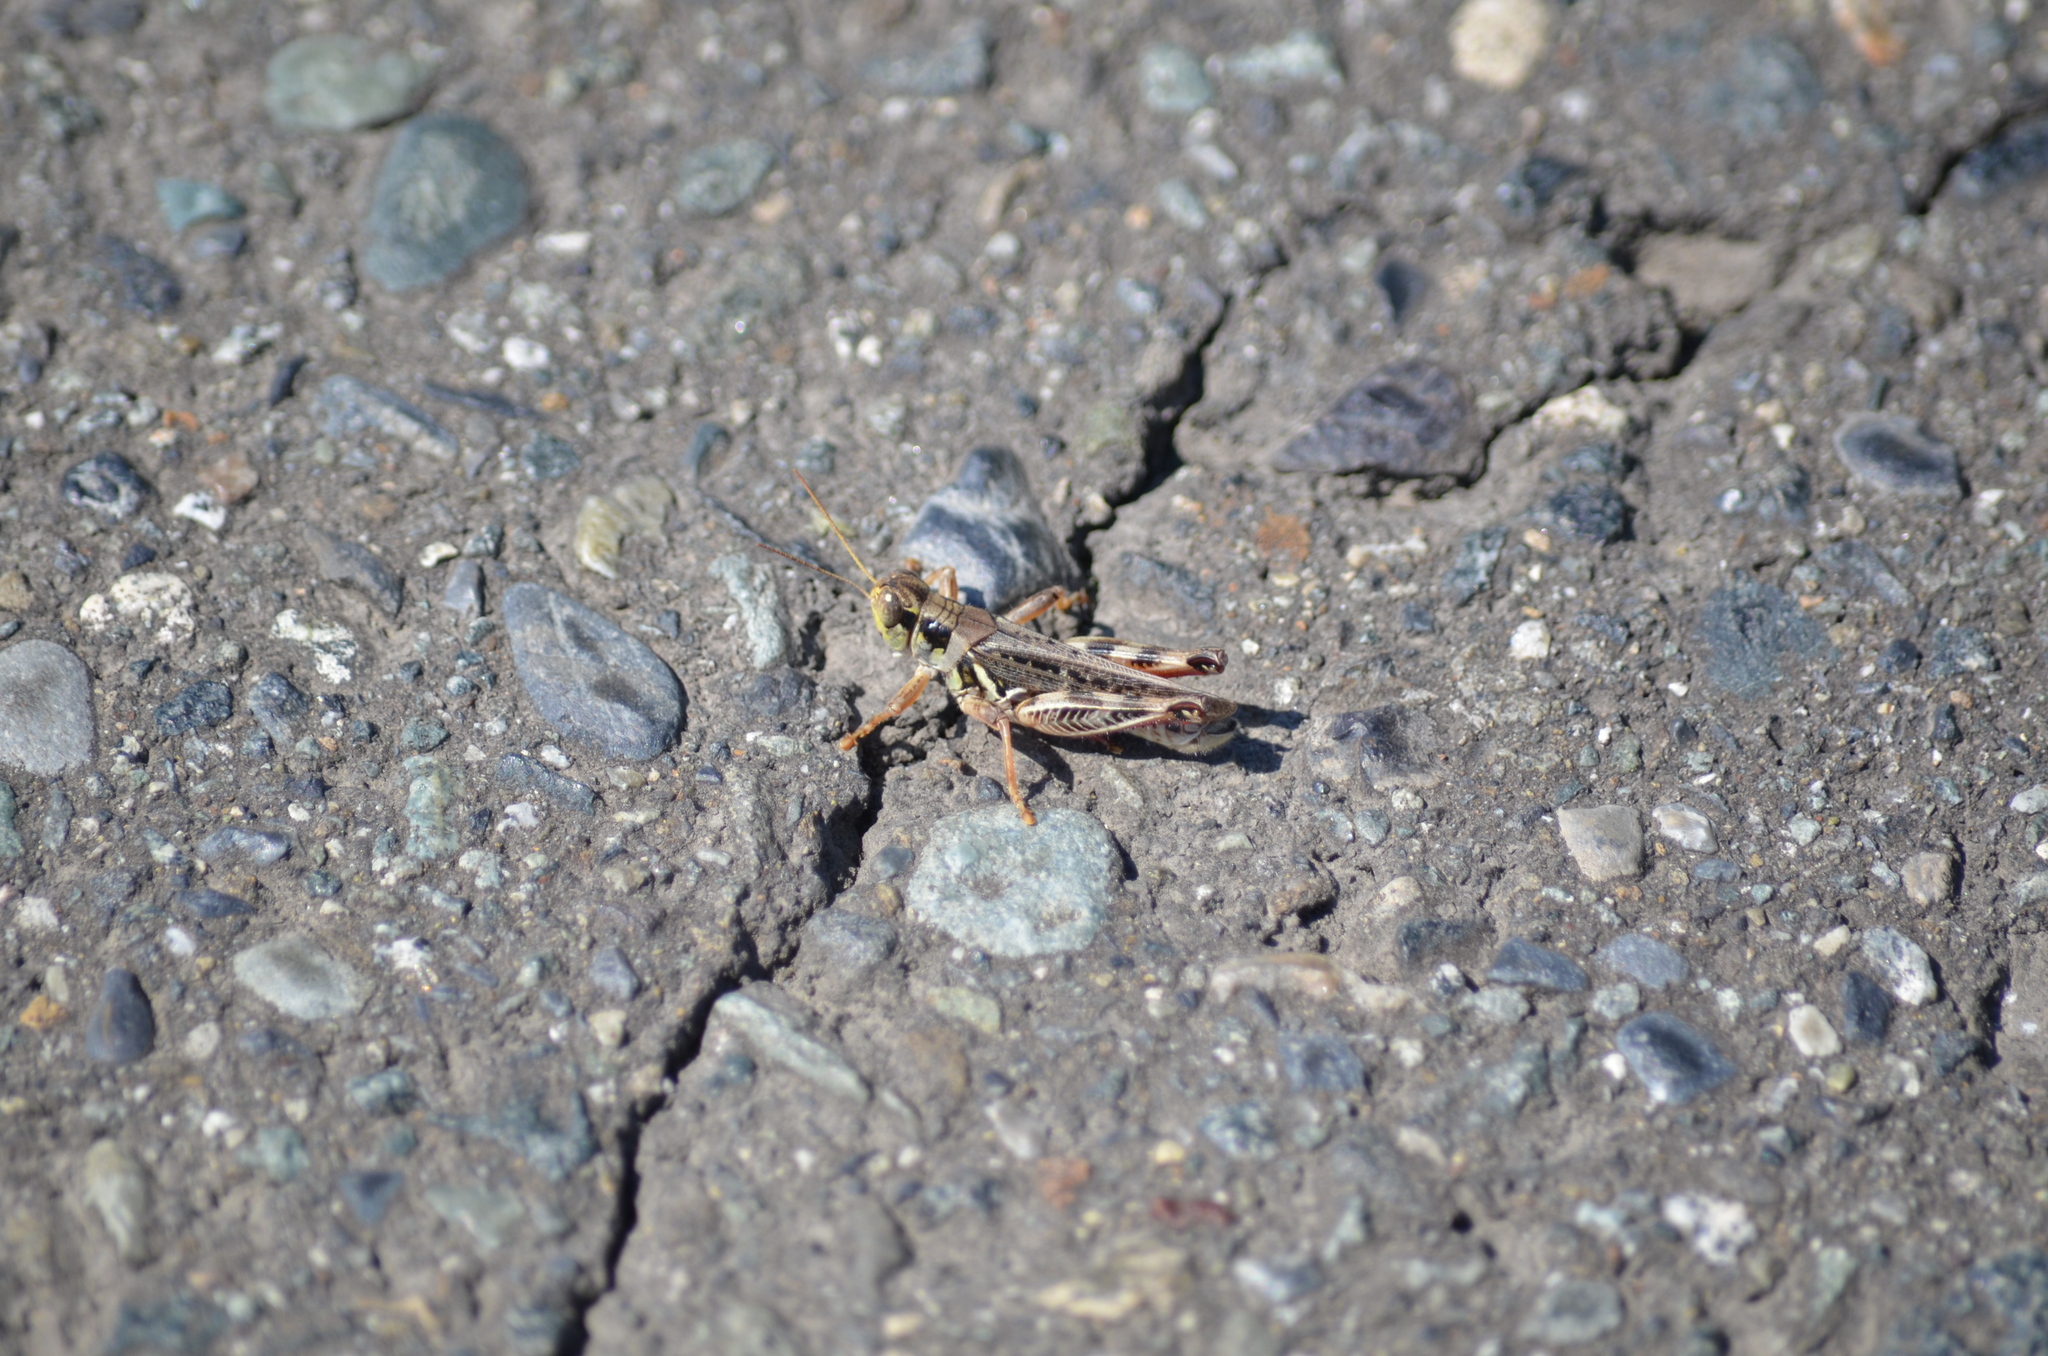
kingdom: Animalia
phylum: Arthropoda
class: Insecta
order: Orthoptera
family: Acrididae
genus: Melanoplus
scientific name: Melanoplus sanguinipes
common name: Migratory grasshopper
